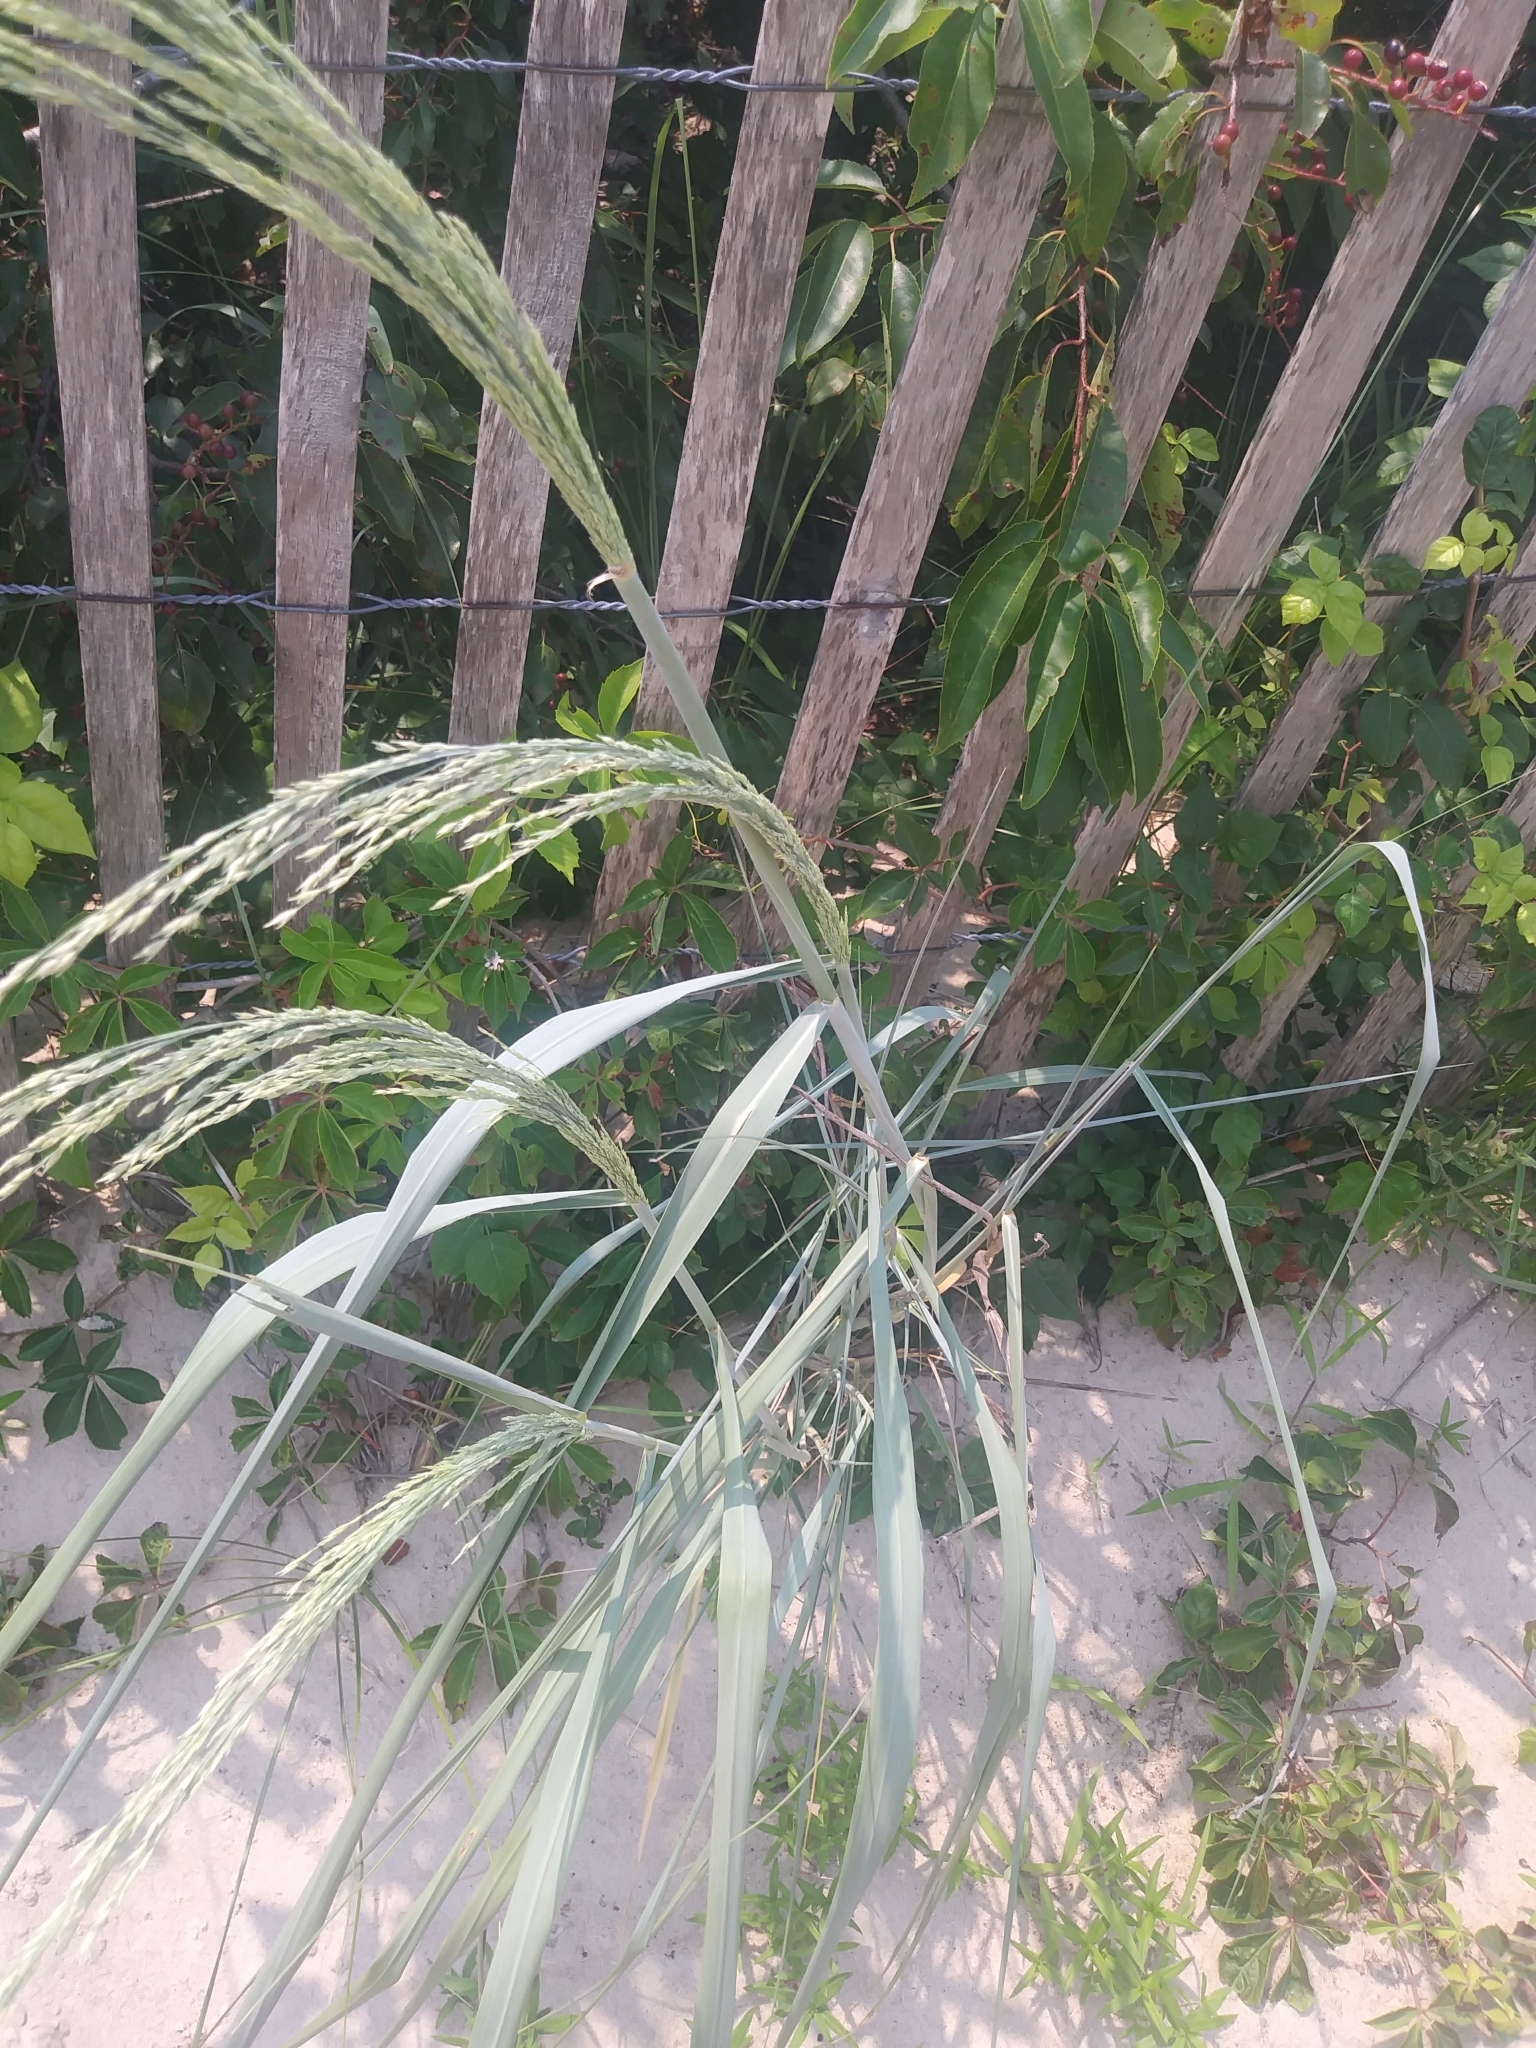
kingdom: Plantae
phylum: Tracheophyta
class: Liliopsida
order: Poales
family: Poaceae
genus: Panicum
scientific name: Panicum amarum
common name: Bitter panicum
